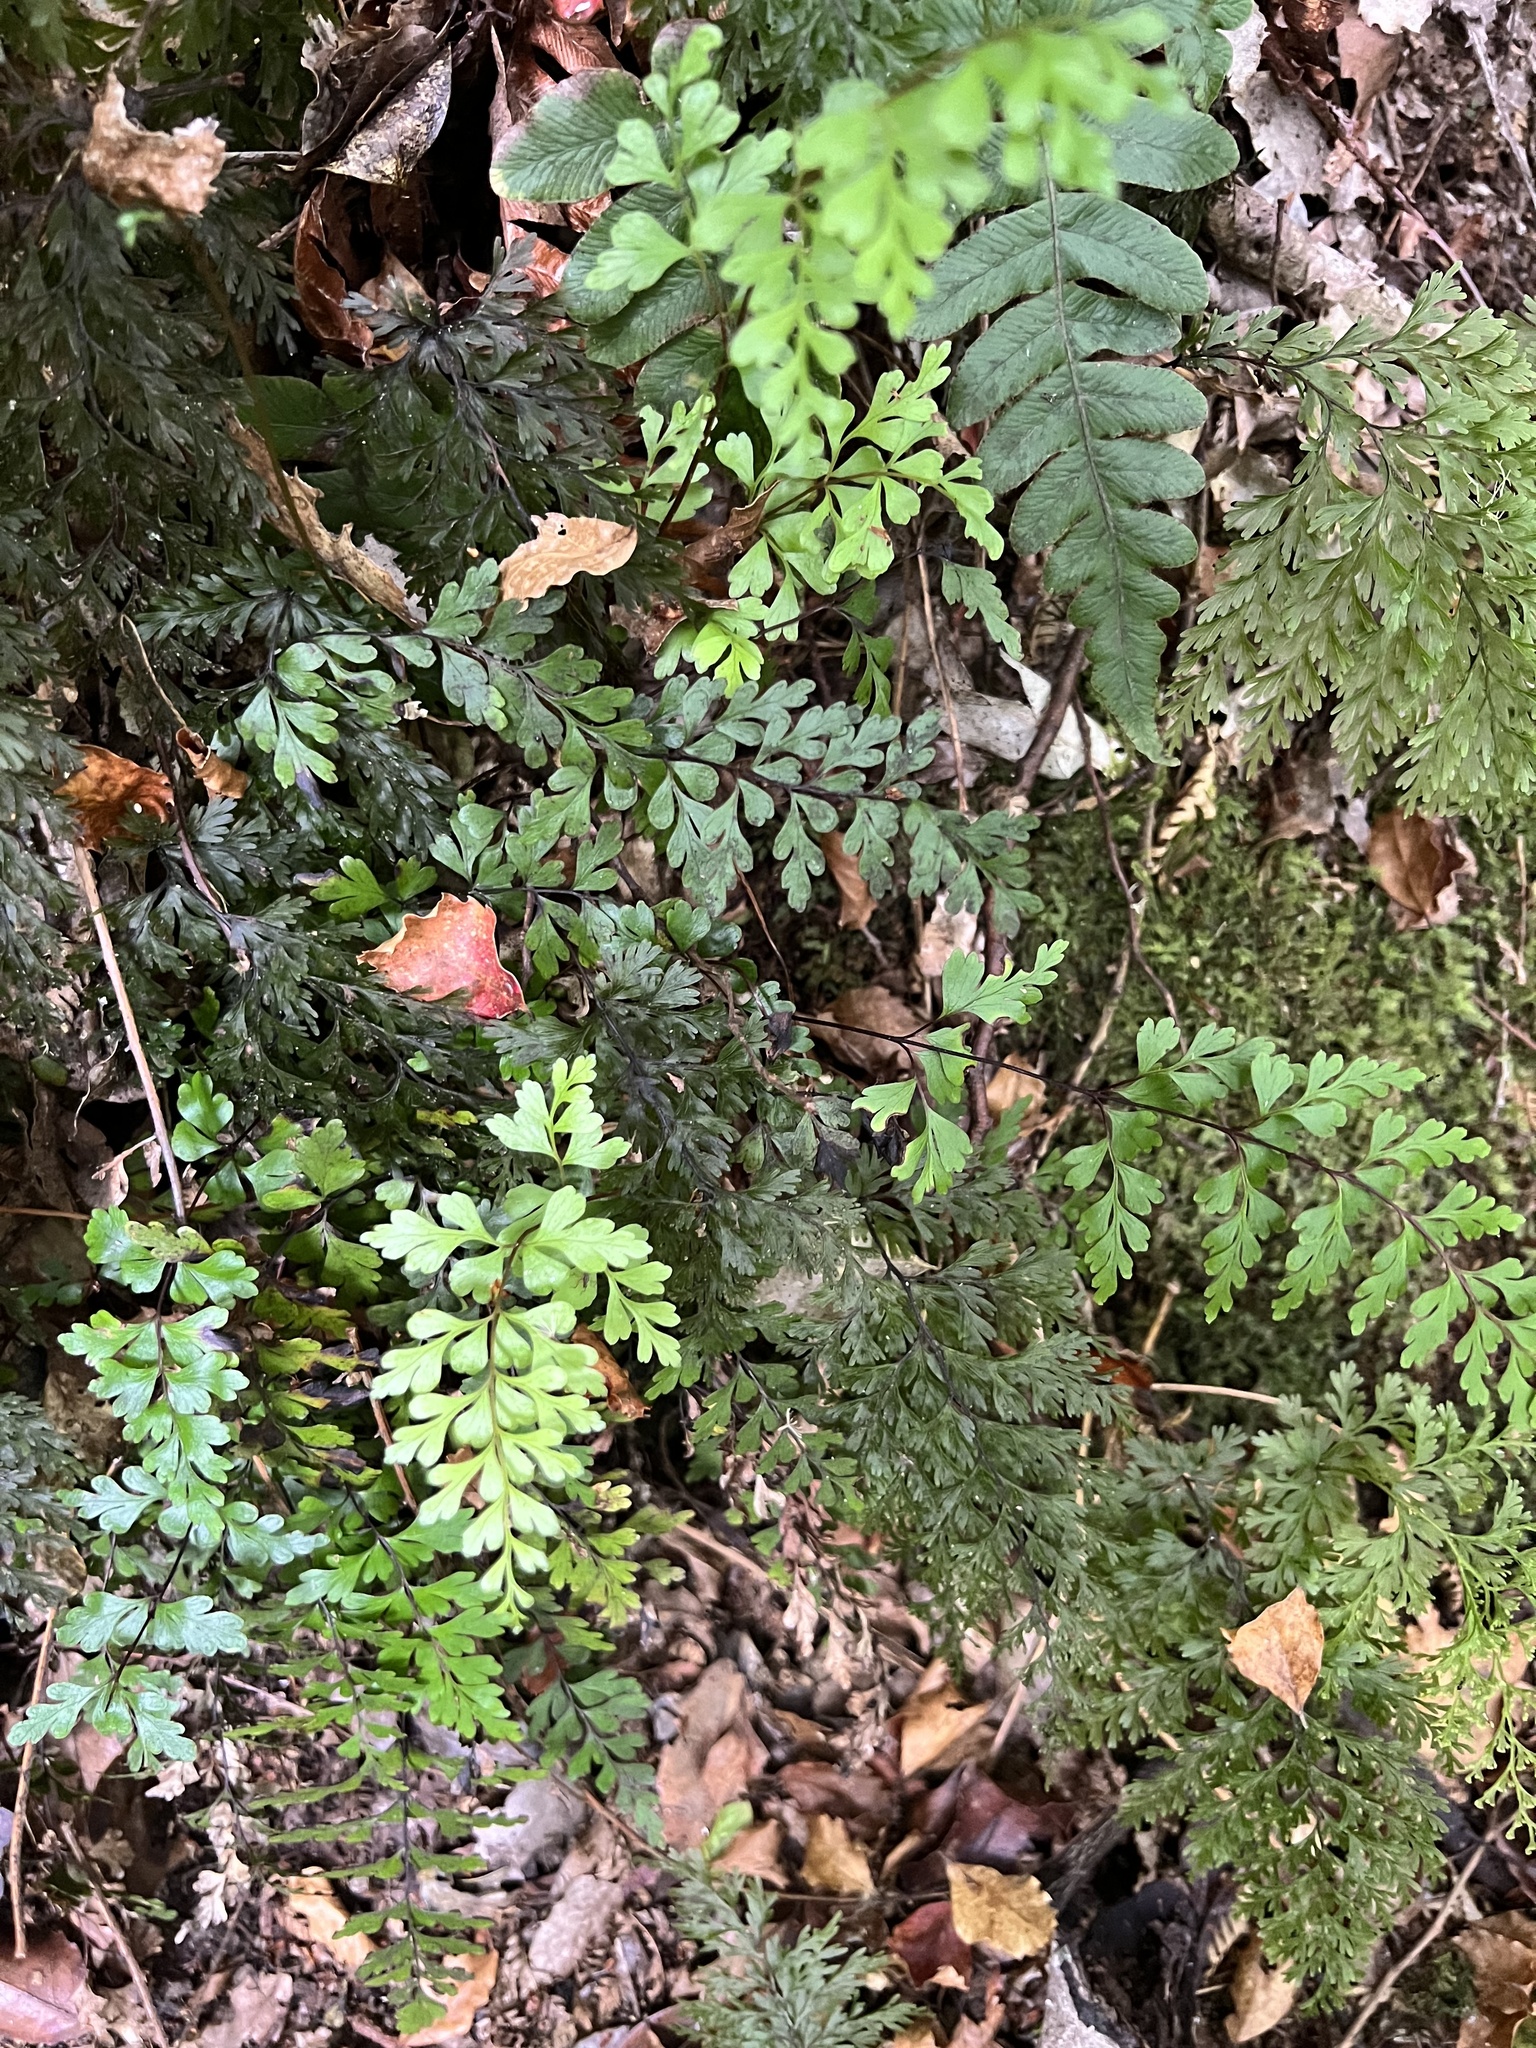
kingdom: Plantae
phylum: Tracheophyta
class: Polypodiopsida
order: Polypodiales
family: Lindsaeaceae
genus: Lindsaea
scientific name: Lindsaea trichomanoides
